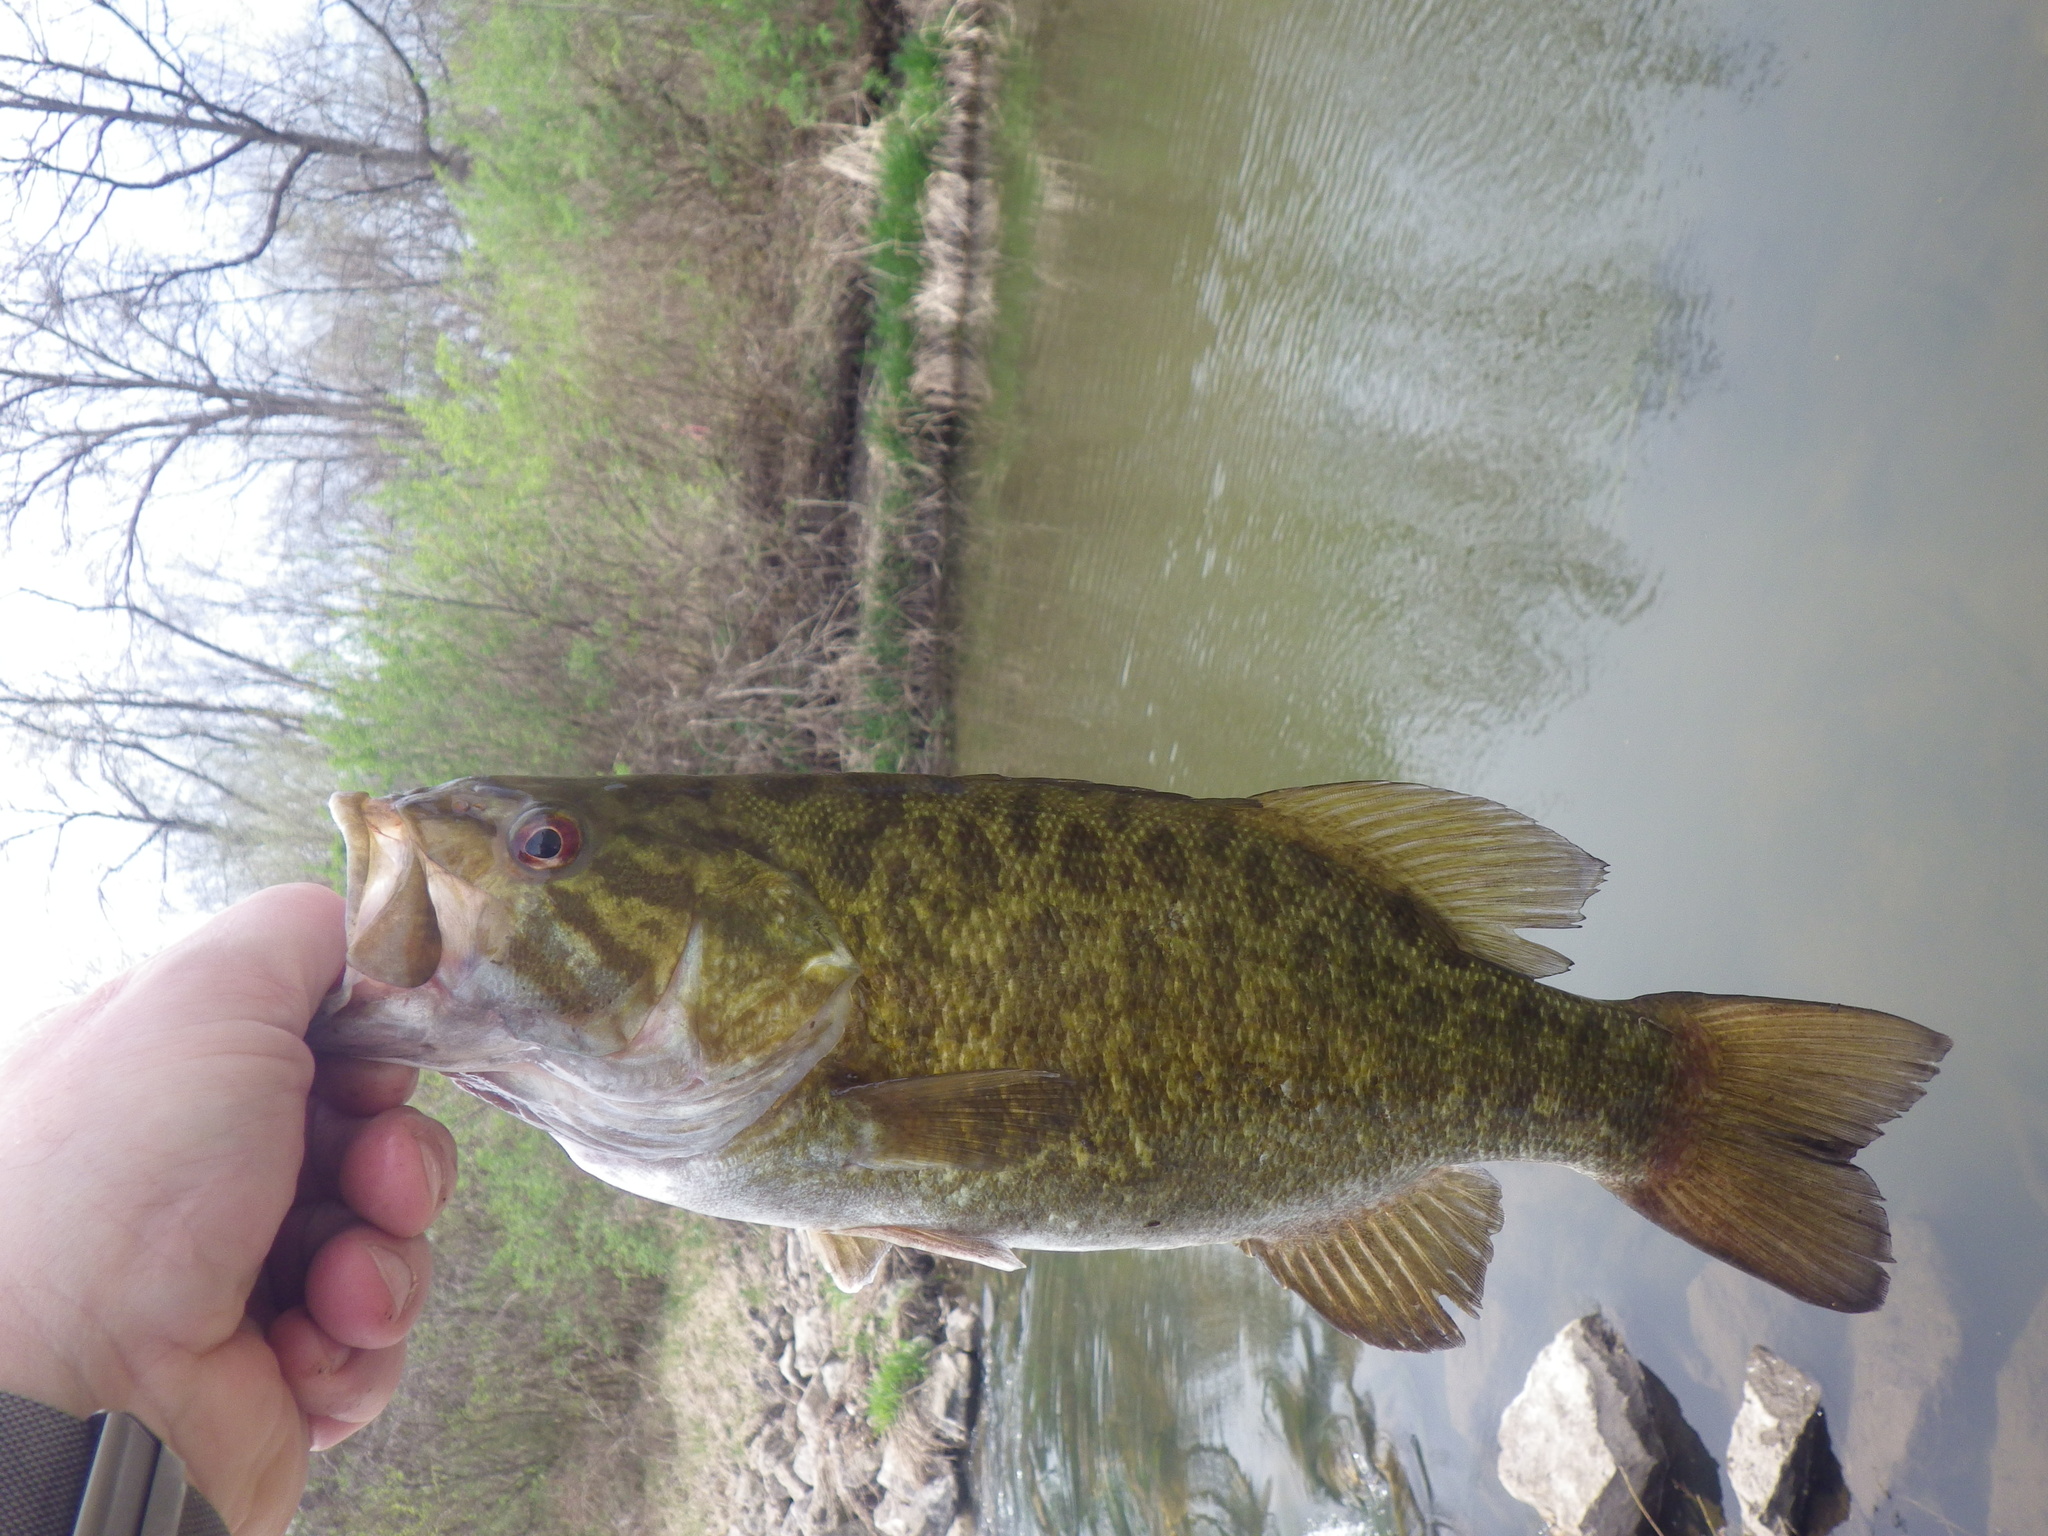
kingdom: Animalia
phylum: Chordata
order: Perciformes
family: Centrarchidae
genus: Micropterus
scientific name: Micropterus dolomieu
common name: Smallmouth bass
